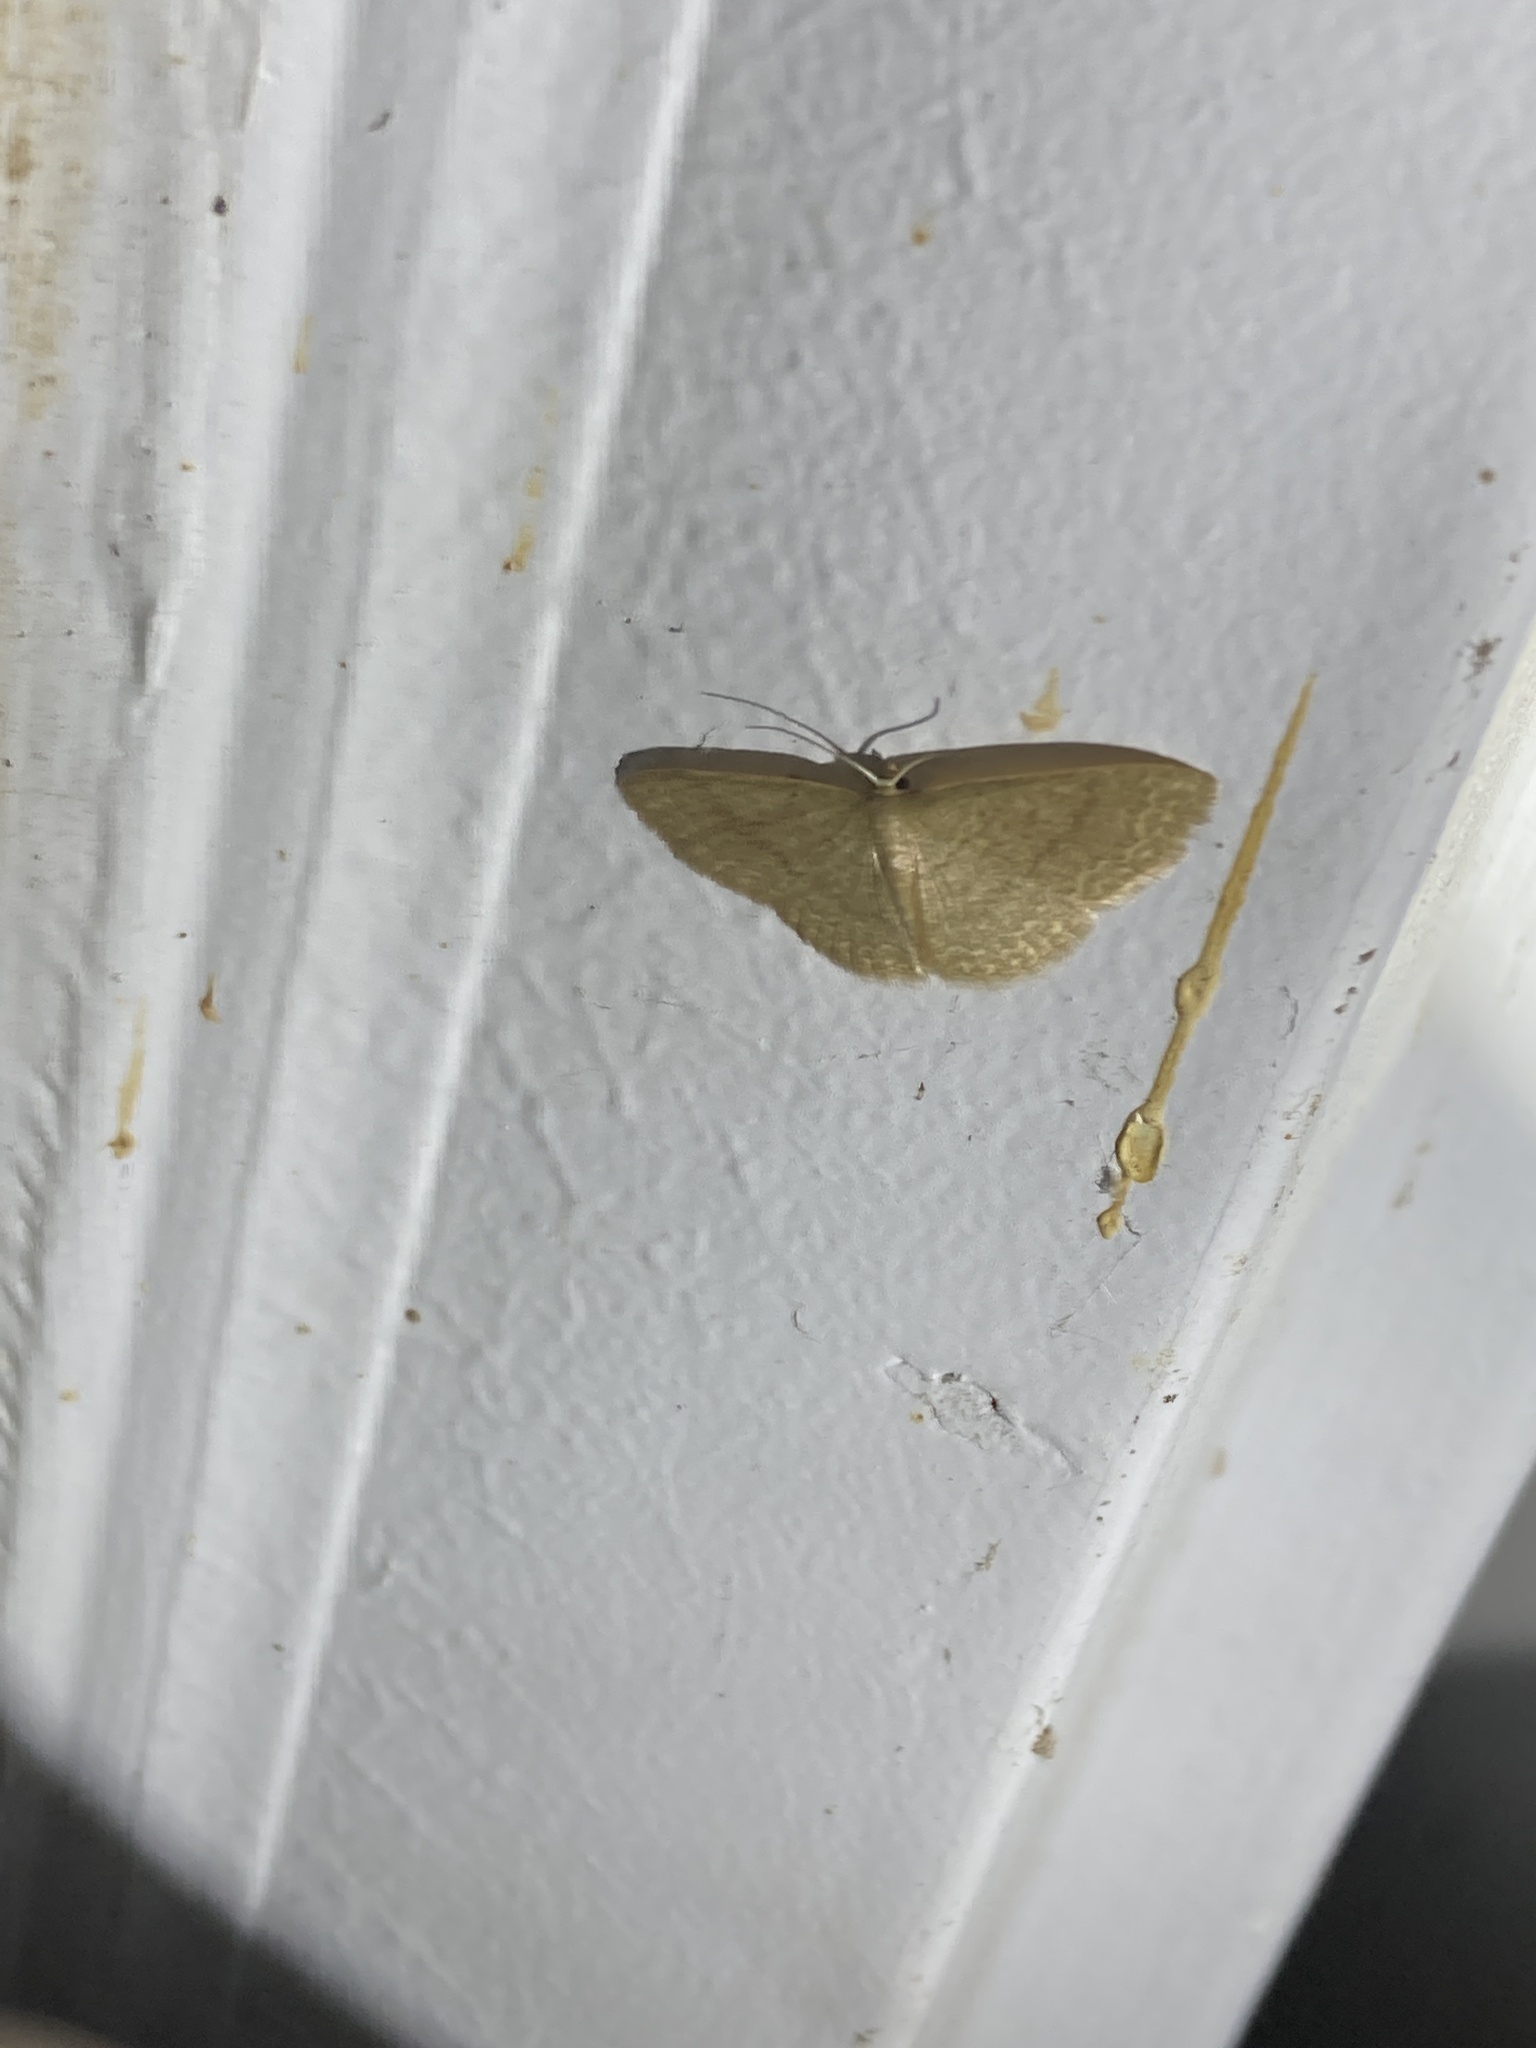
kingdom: Animalia
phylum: Arthropoda
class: Insecta
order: Lepidoptera
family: Geometridae
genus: Pleuroprucha
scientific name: Pleuroprucha insulsaria
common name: Common tan wave
